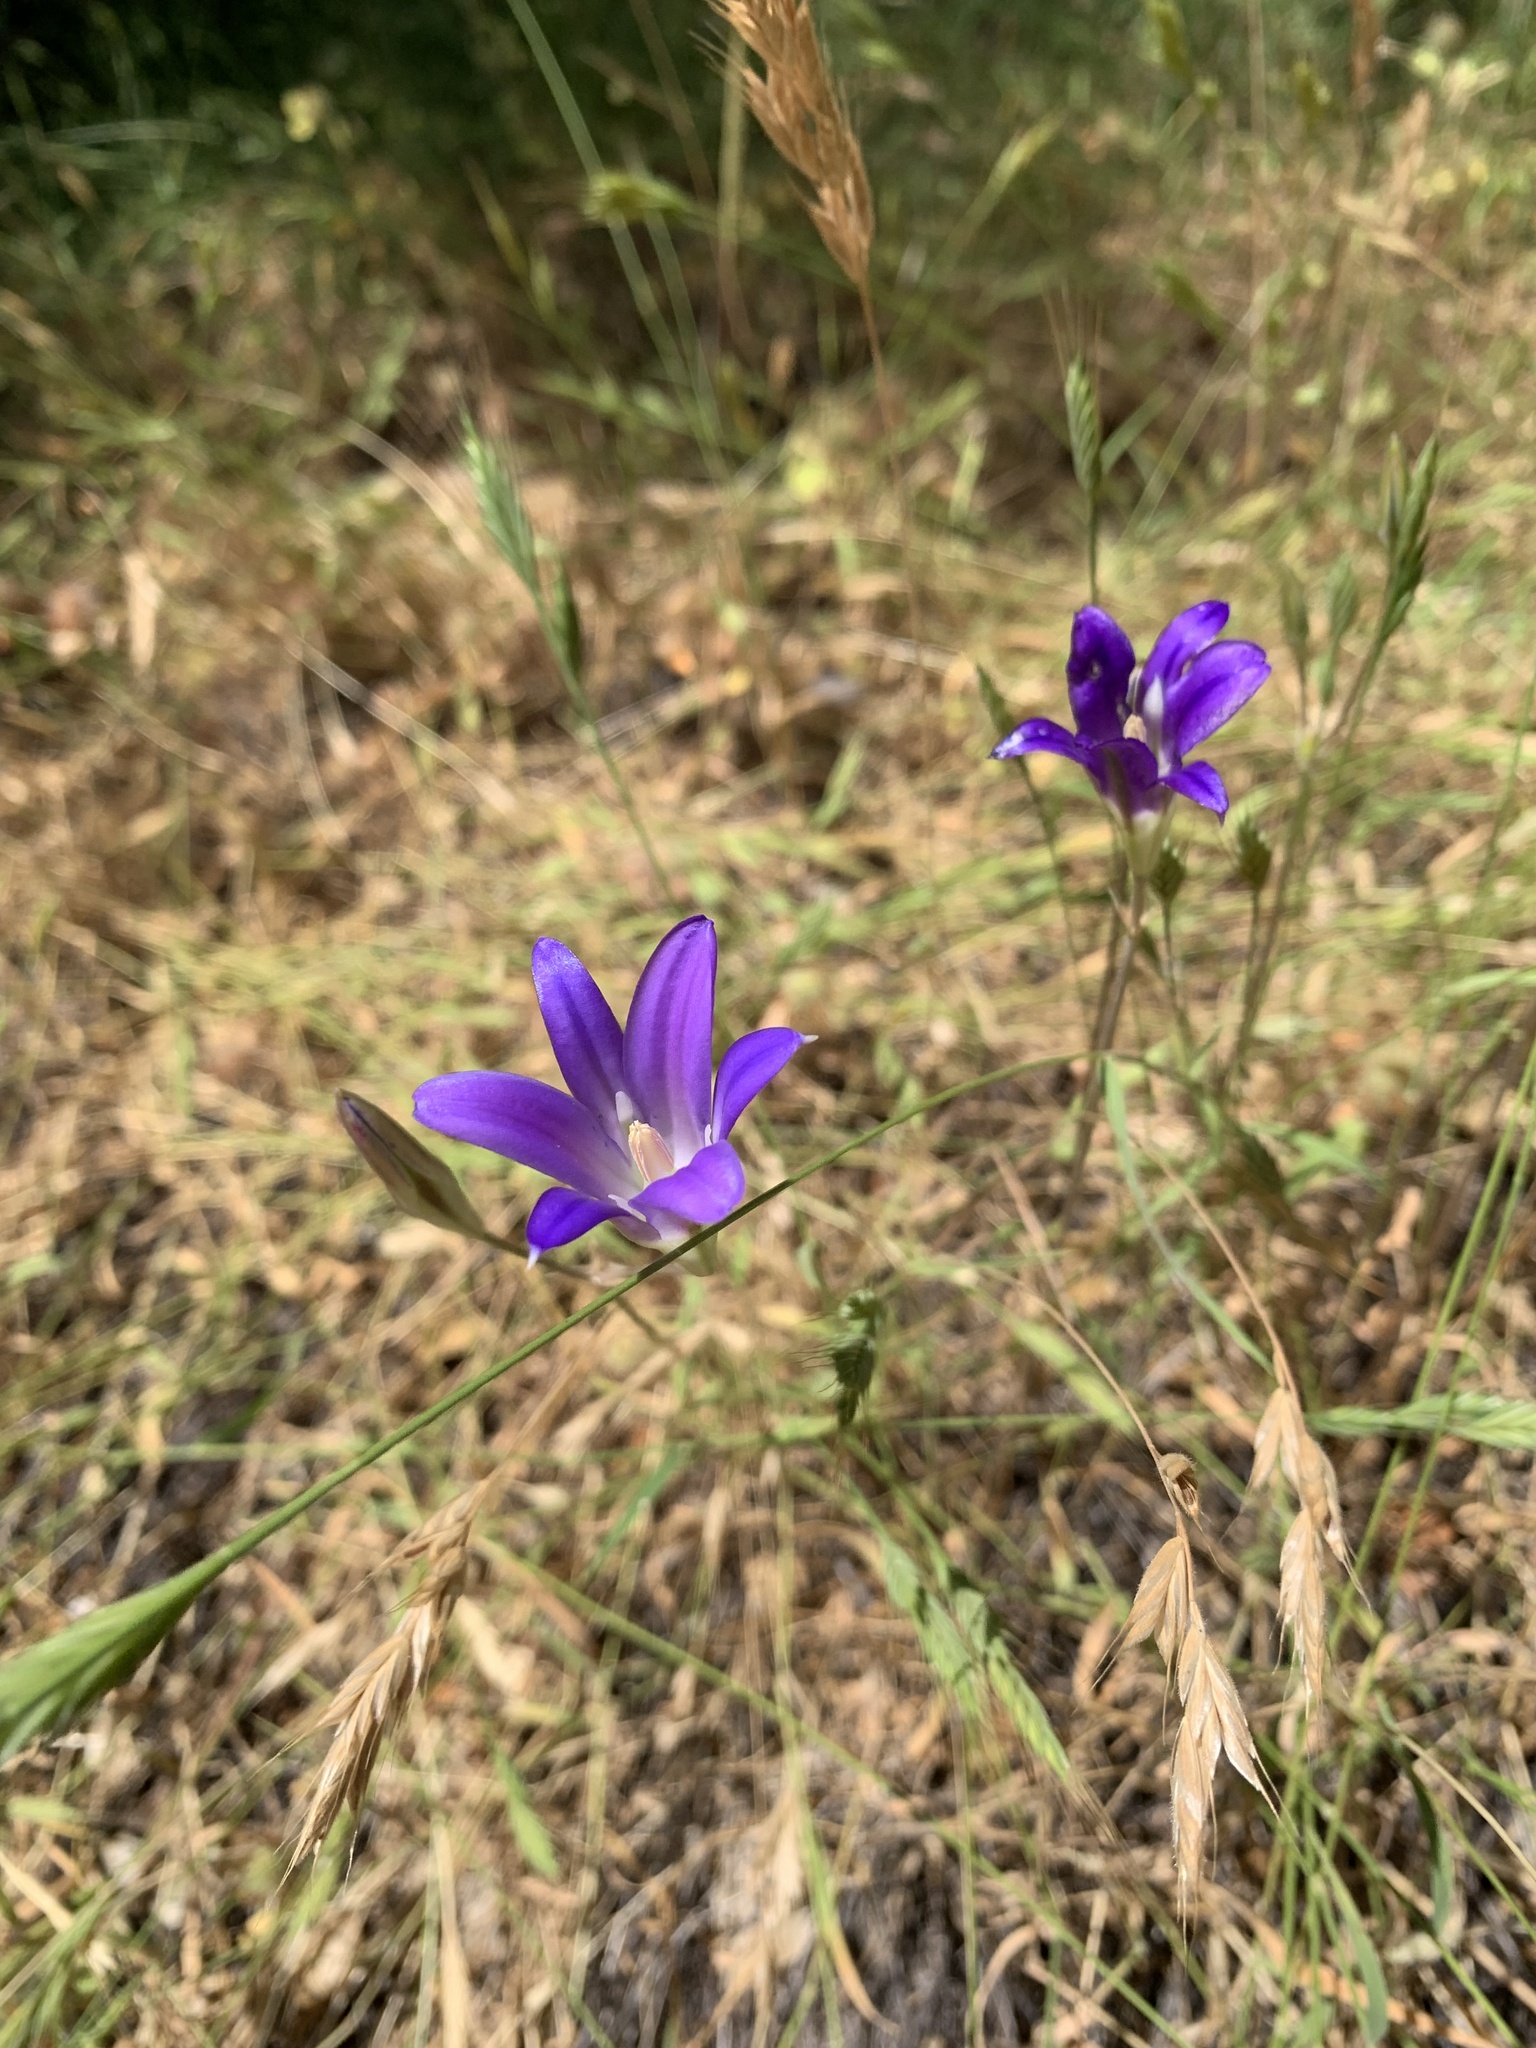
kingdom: Plantae
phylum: Tracheophyta
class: Liliopsida
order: Asparagales
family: Asparagaceae
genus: Brodiaea
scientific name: Brodiaea elegans
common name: Elegant cluster-lily
